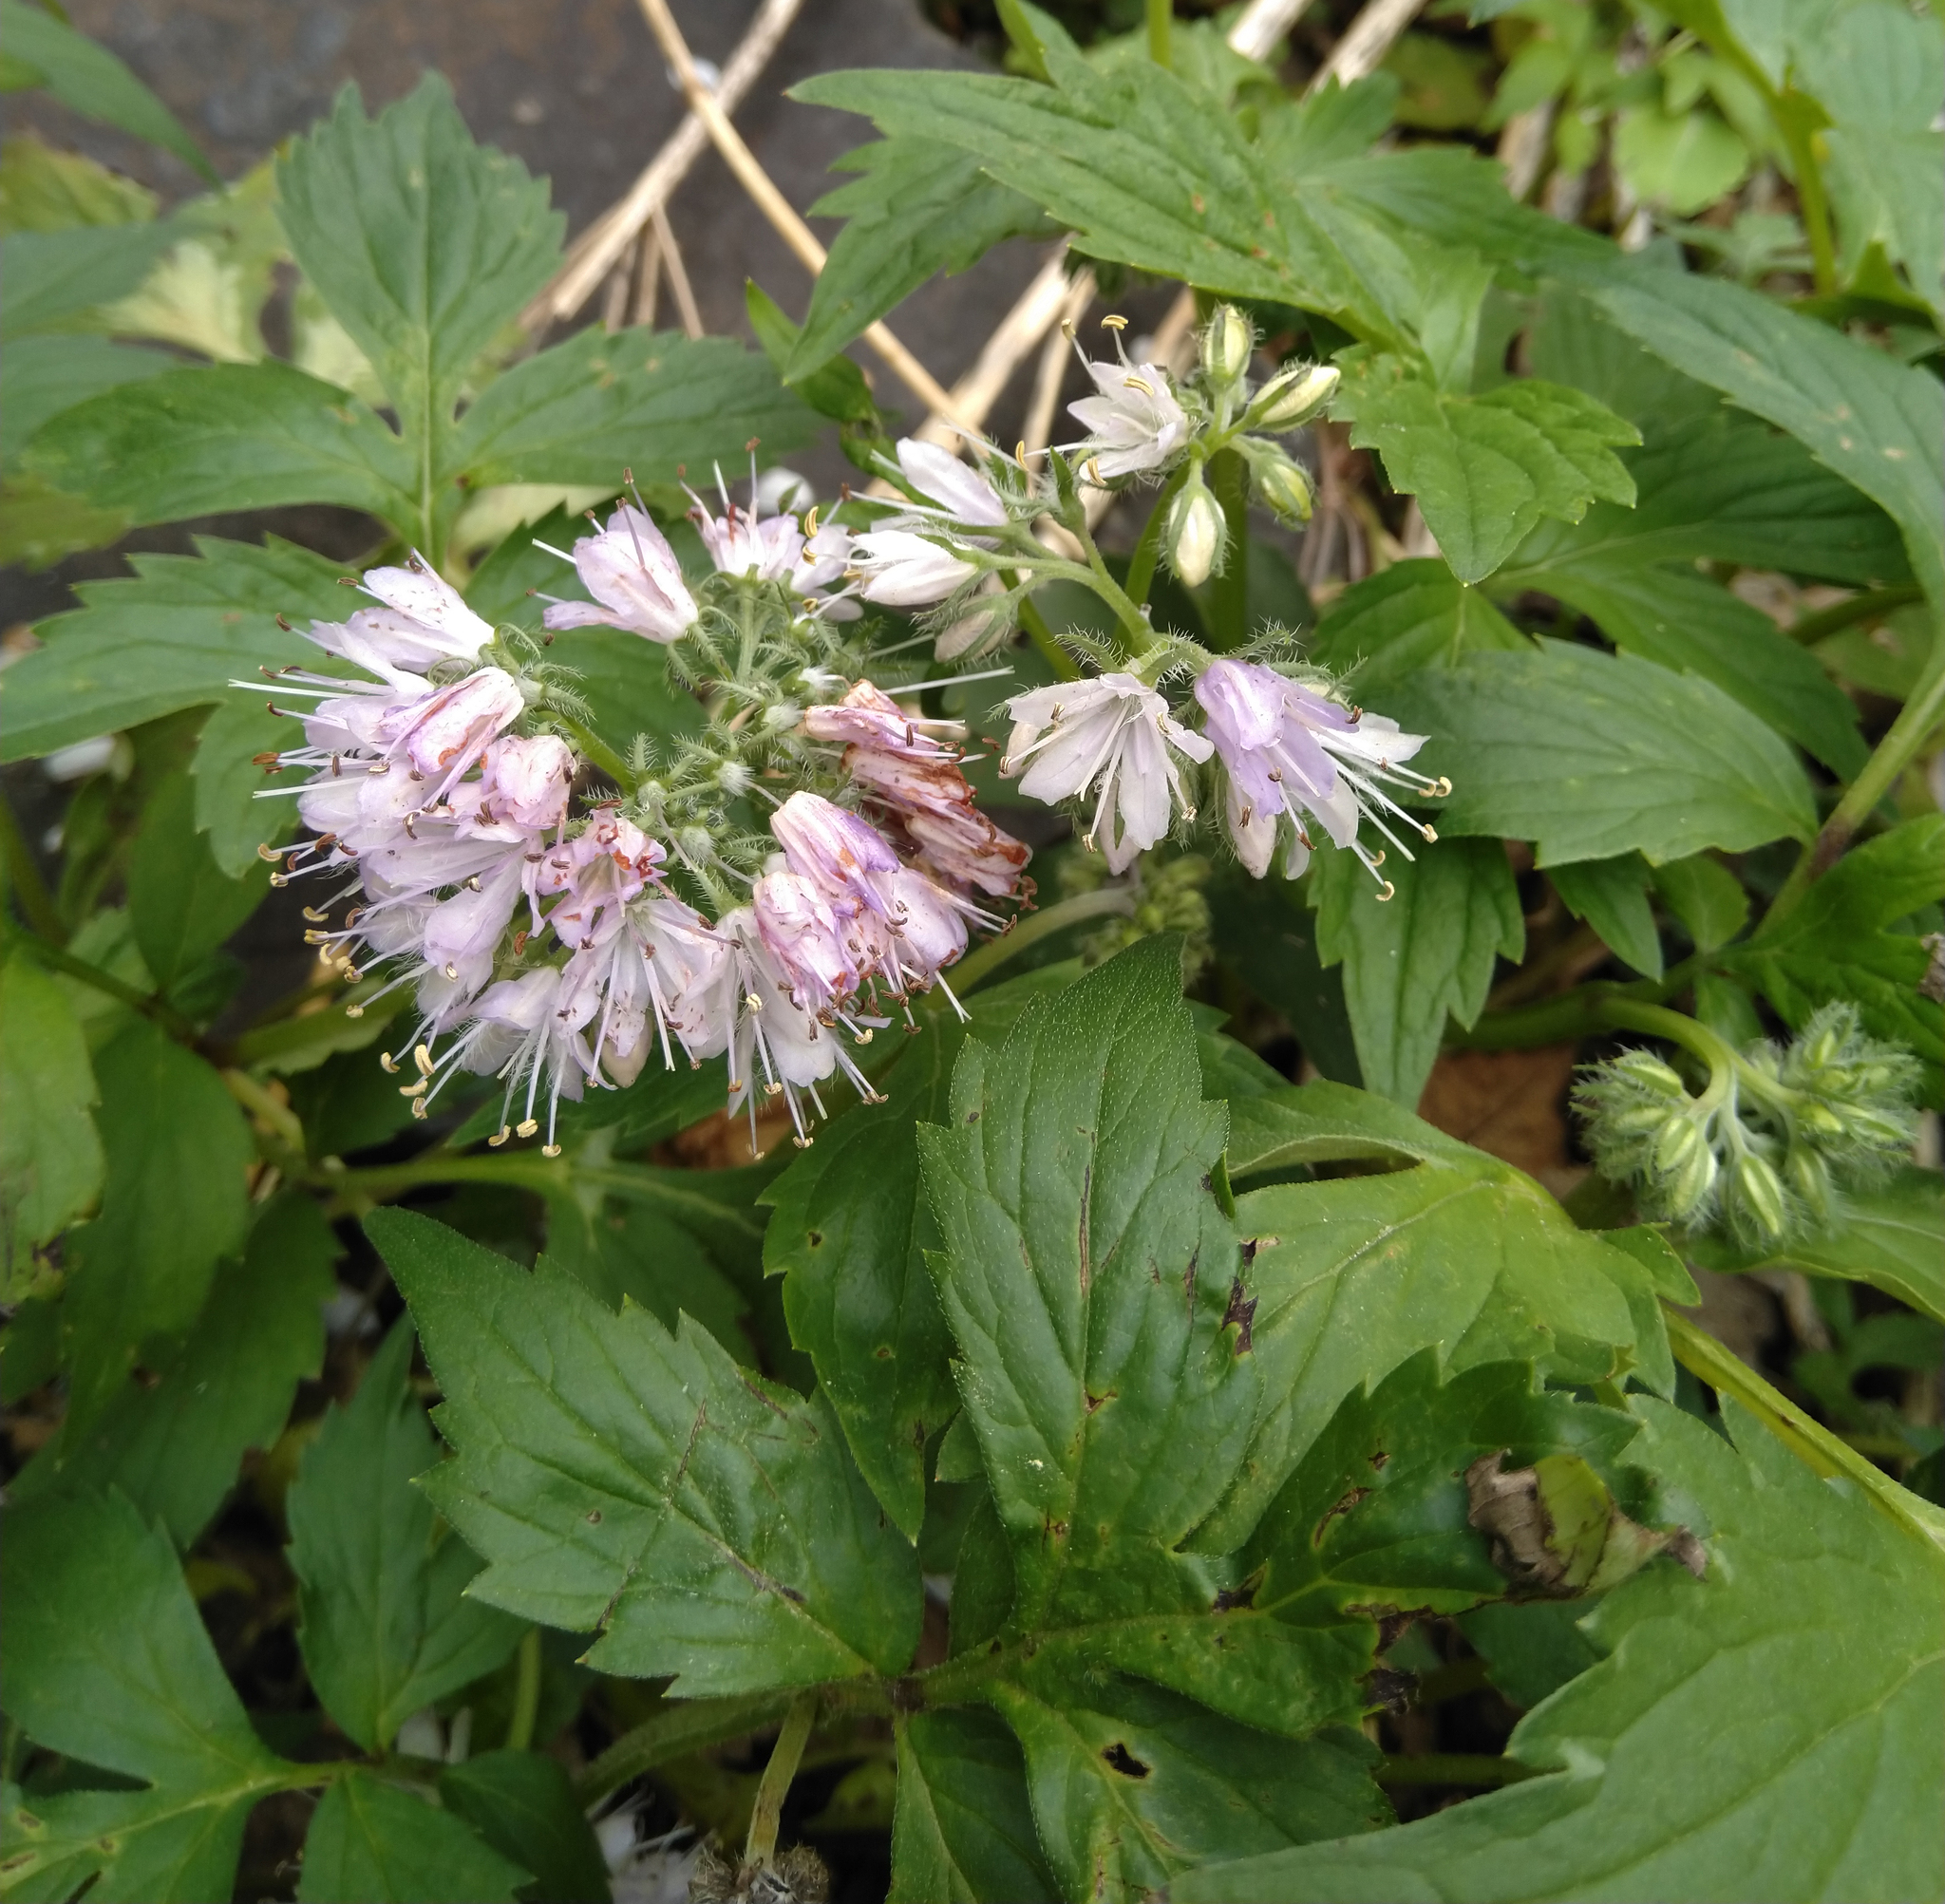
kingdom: Plantae
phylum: Tracheophyta
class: Magnoliopsida
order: Boraginales
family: Hydrophyllaceae
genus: Hydrophyllum
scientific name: Hydrophyllum virginianum
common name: Virginia waterleaf
